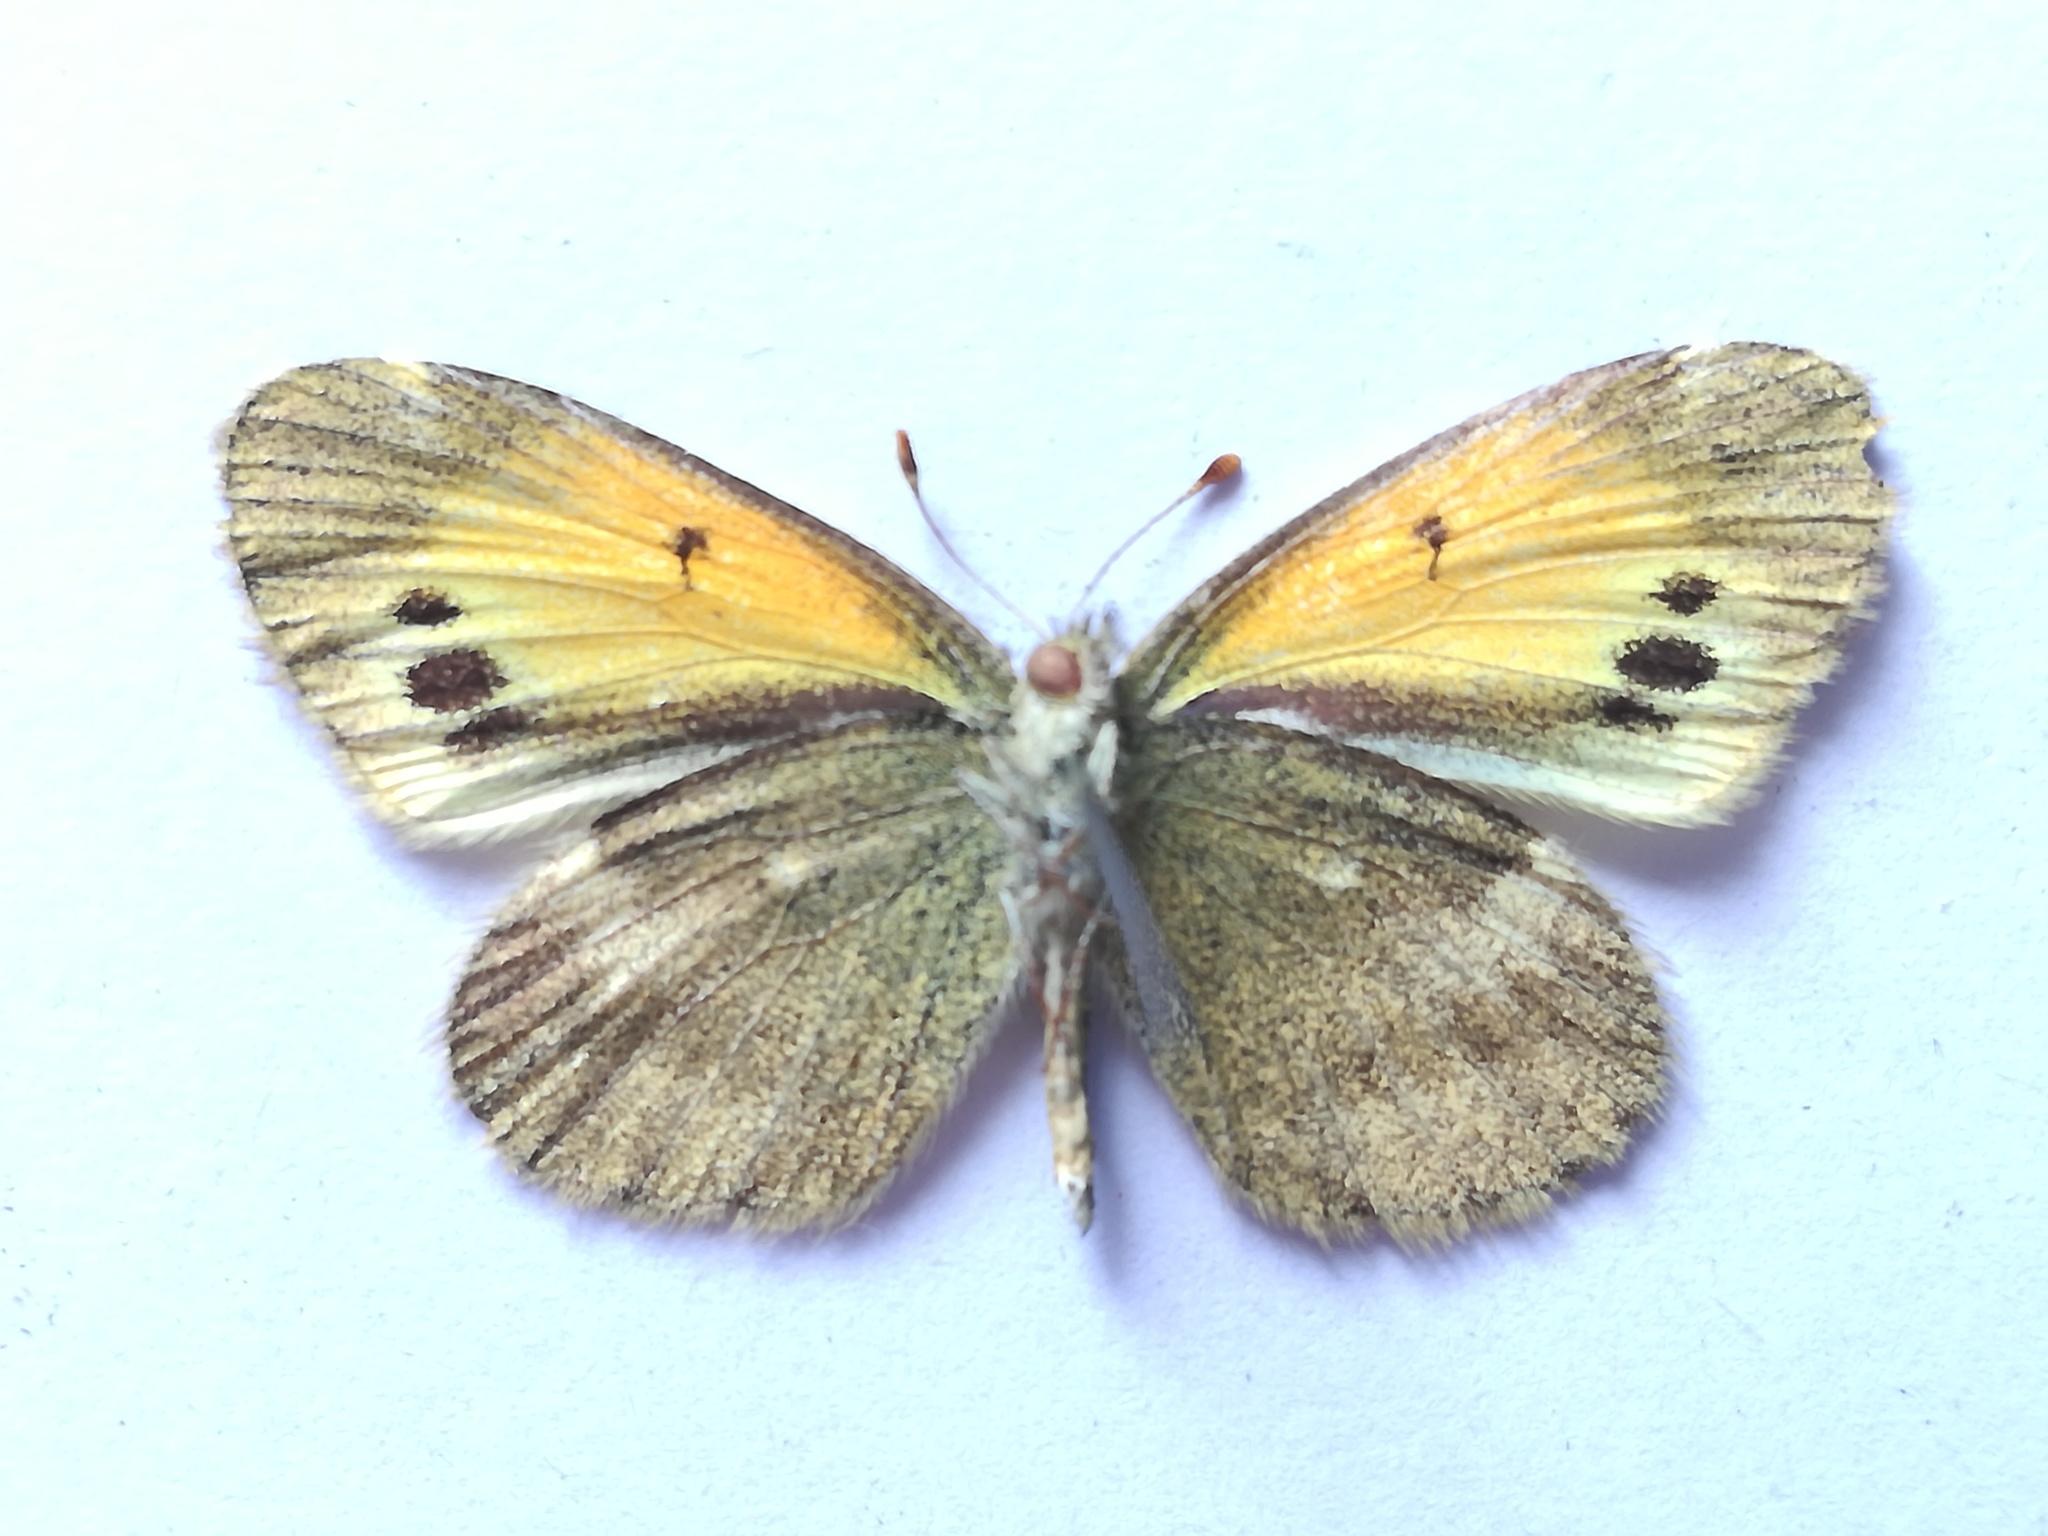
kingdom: Animalia
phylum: Arthropoda
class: Insecta
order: Lepidoptera
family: Pieridae
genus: Nathalis
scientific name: Nathalis iole
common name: Dainty sulphur
